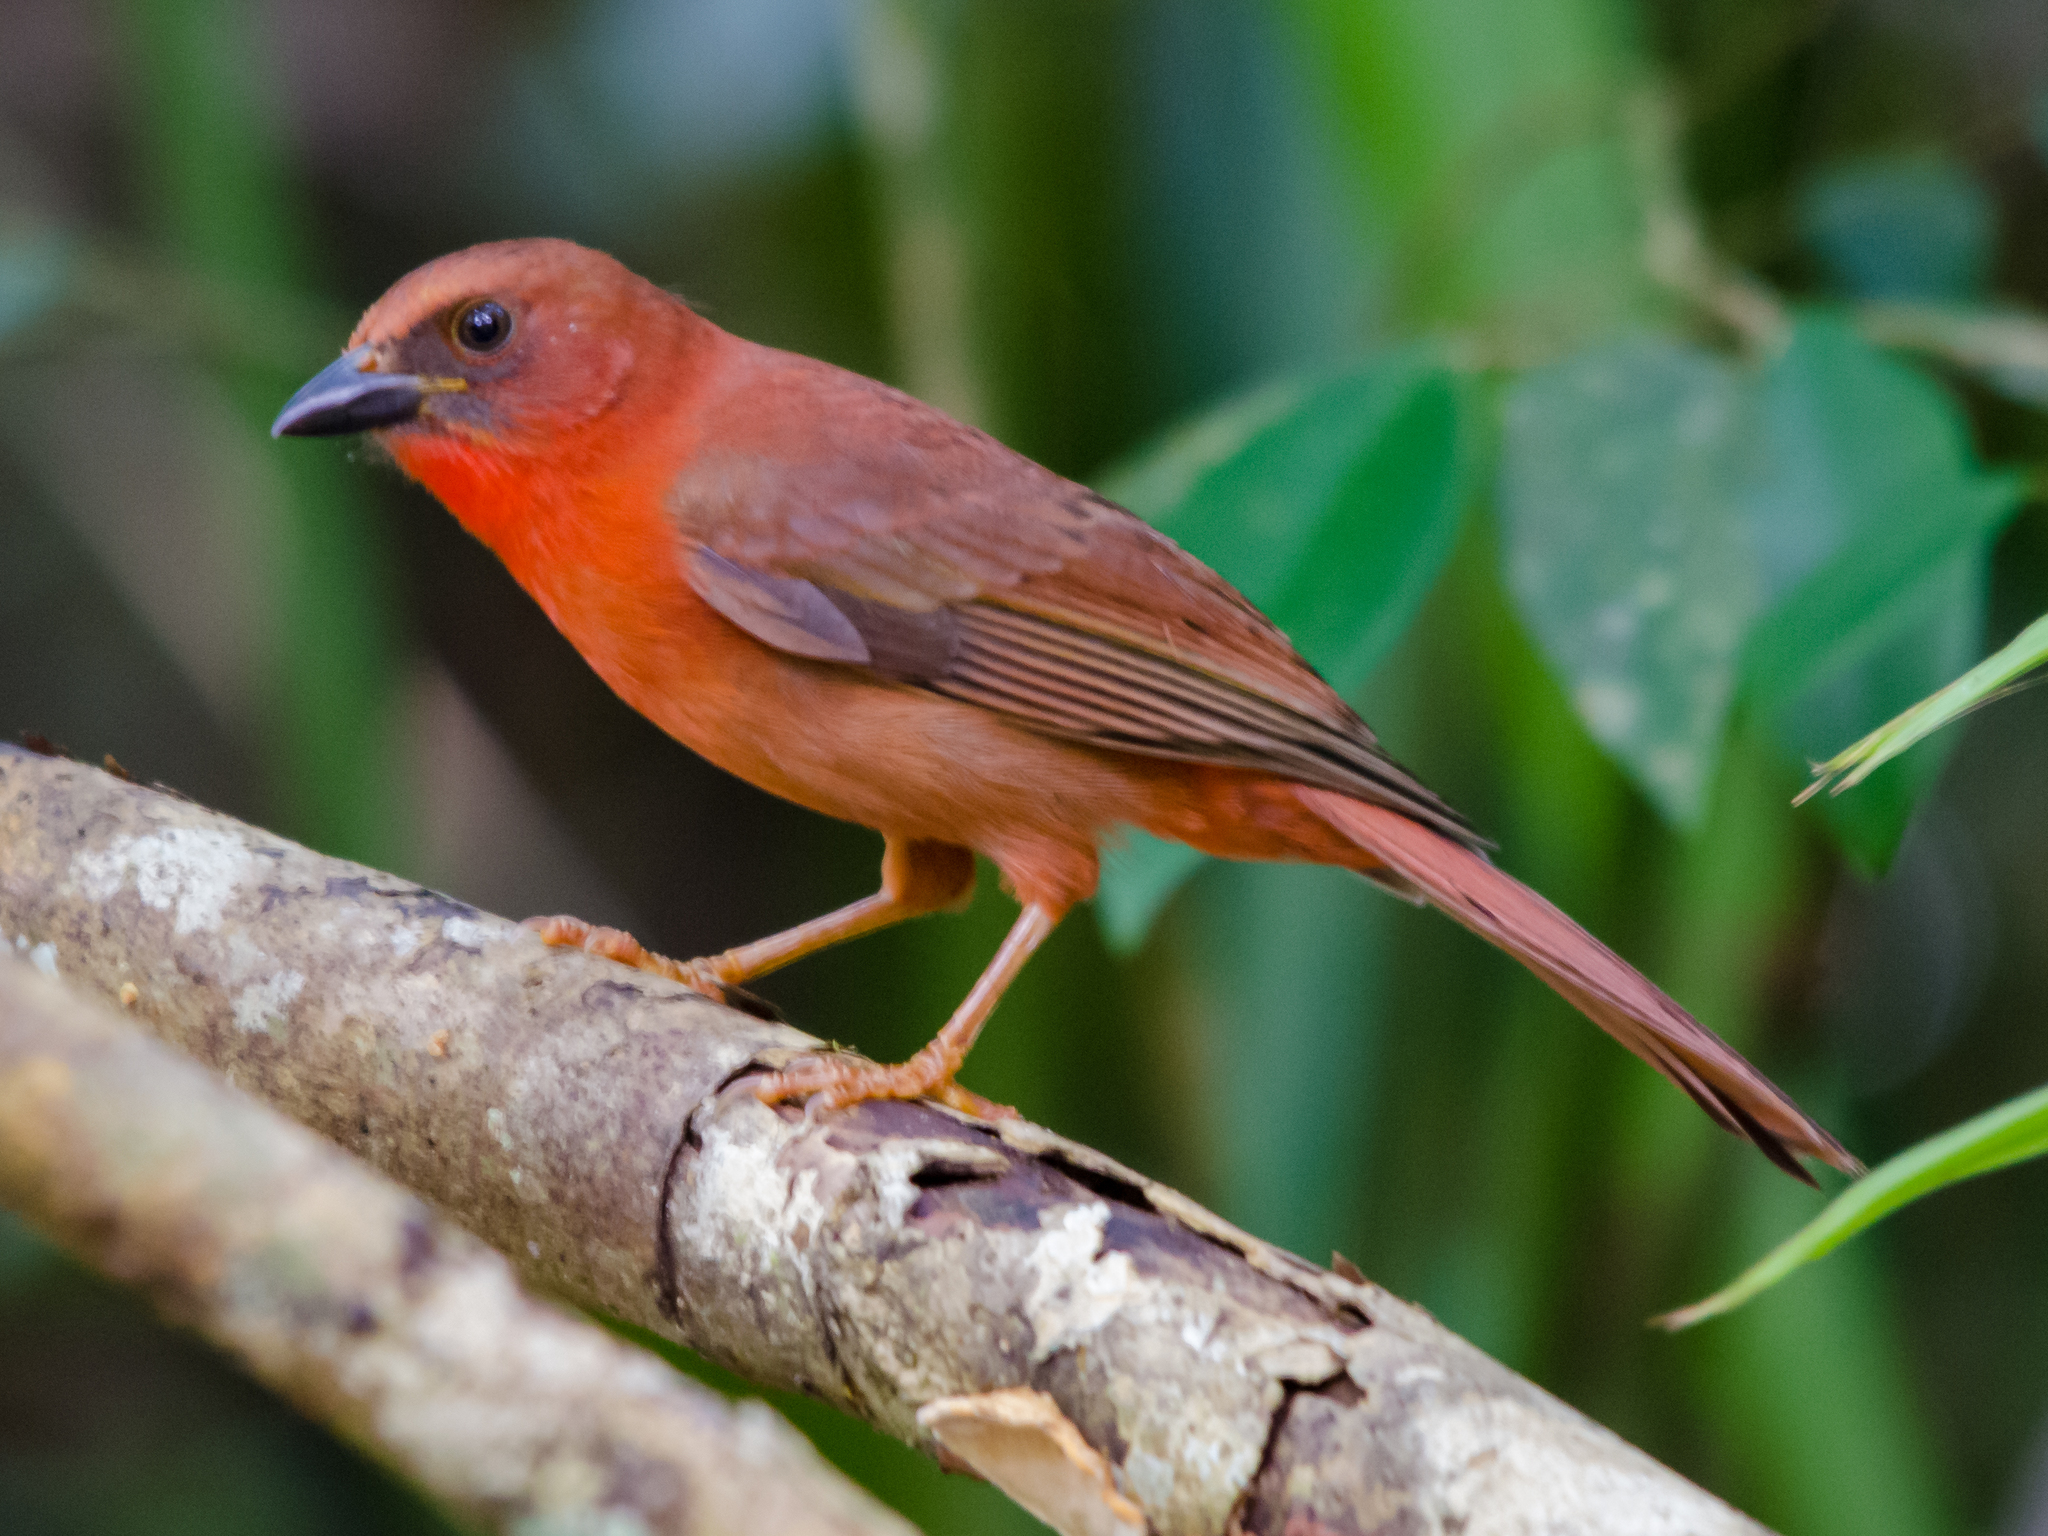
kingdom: Animalia
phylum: Chordata
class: Aves
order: Passeriformes
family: Cardinalidae
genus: Habia
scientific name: Habia fuscicauda
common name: Red-throated ant-tanager
